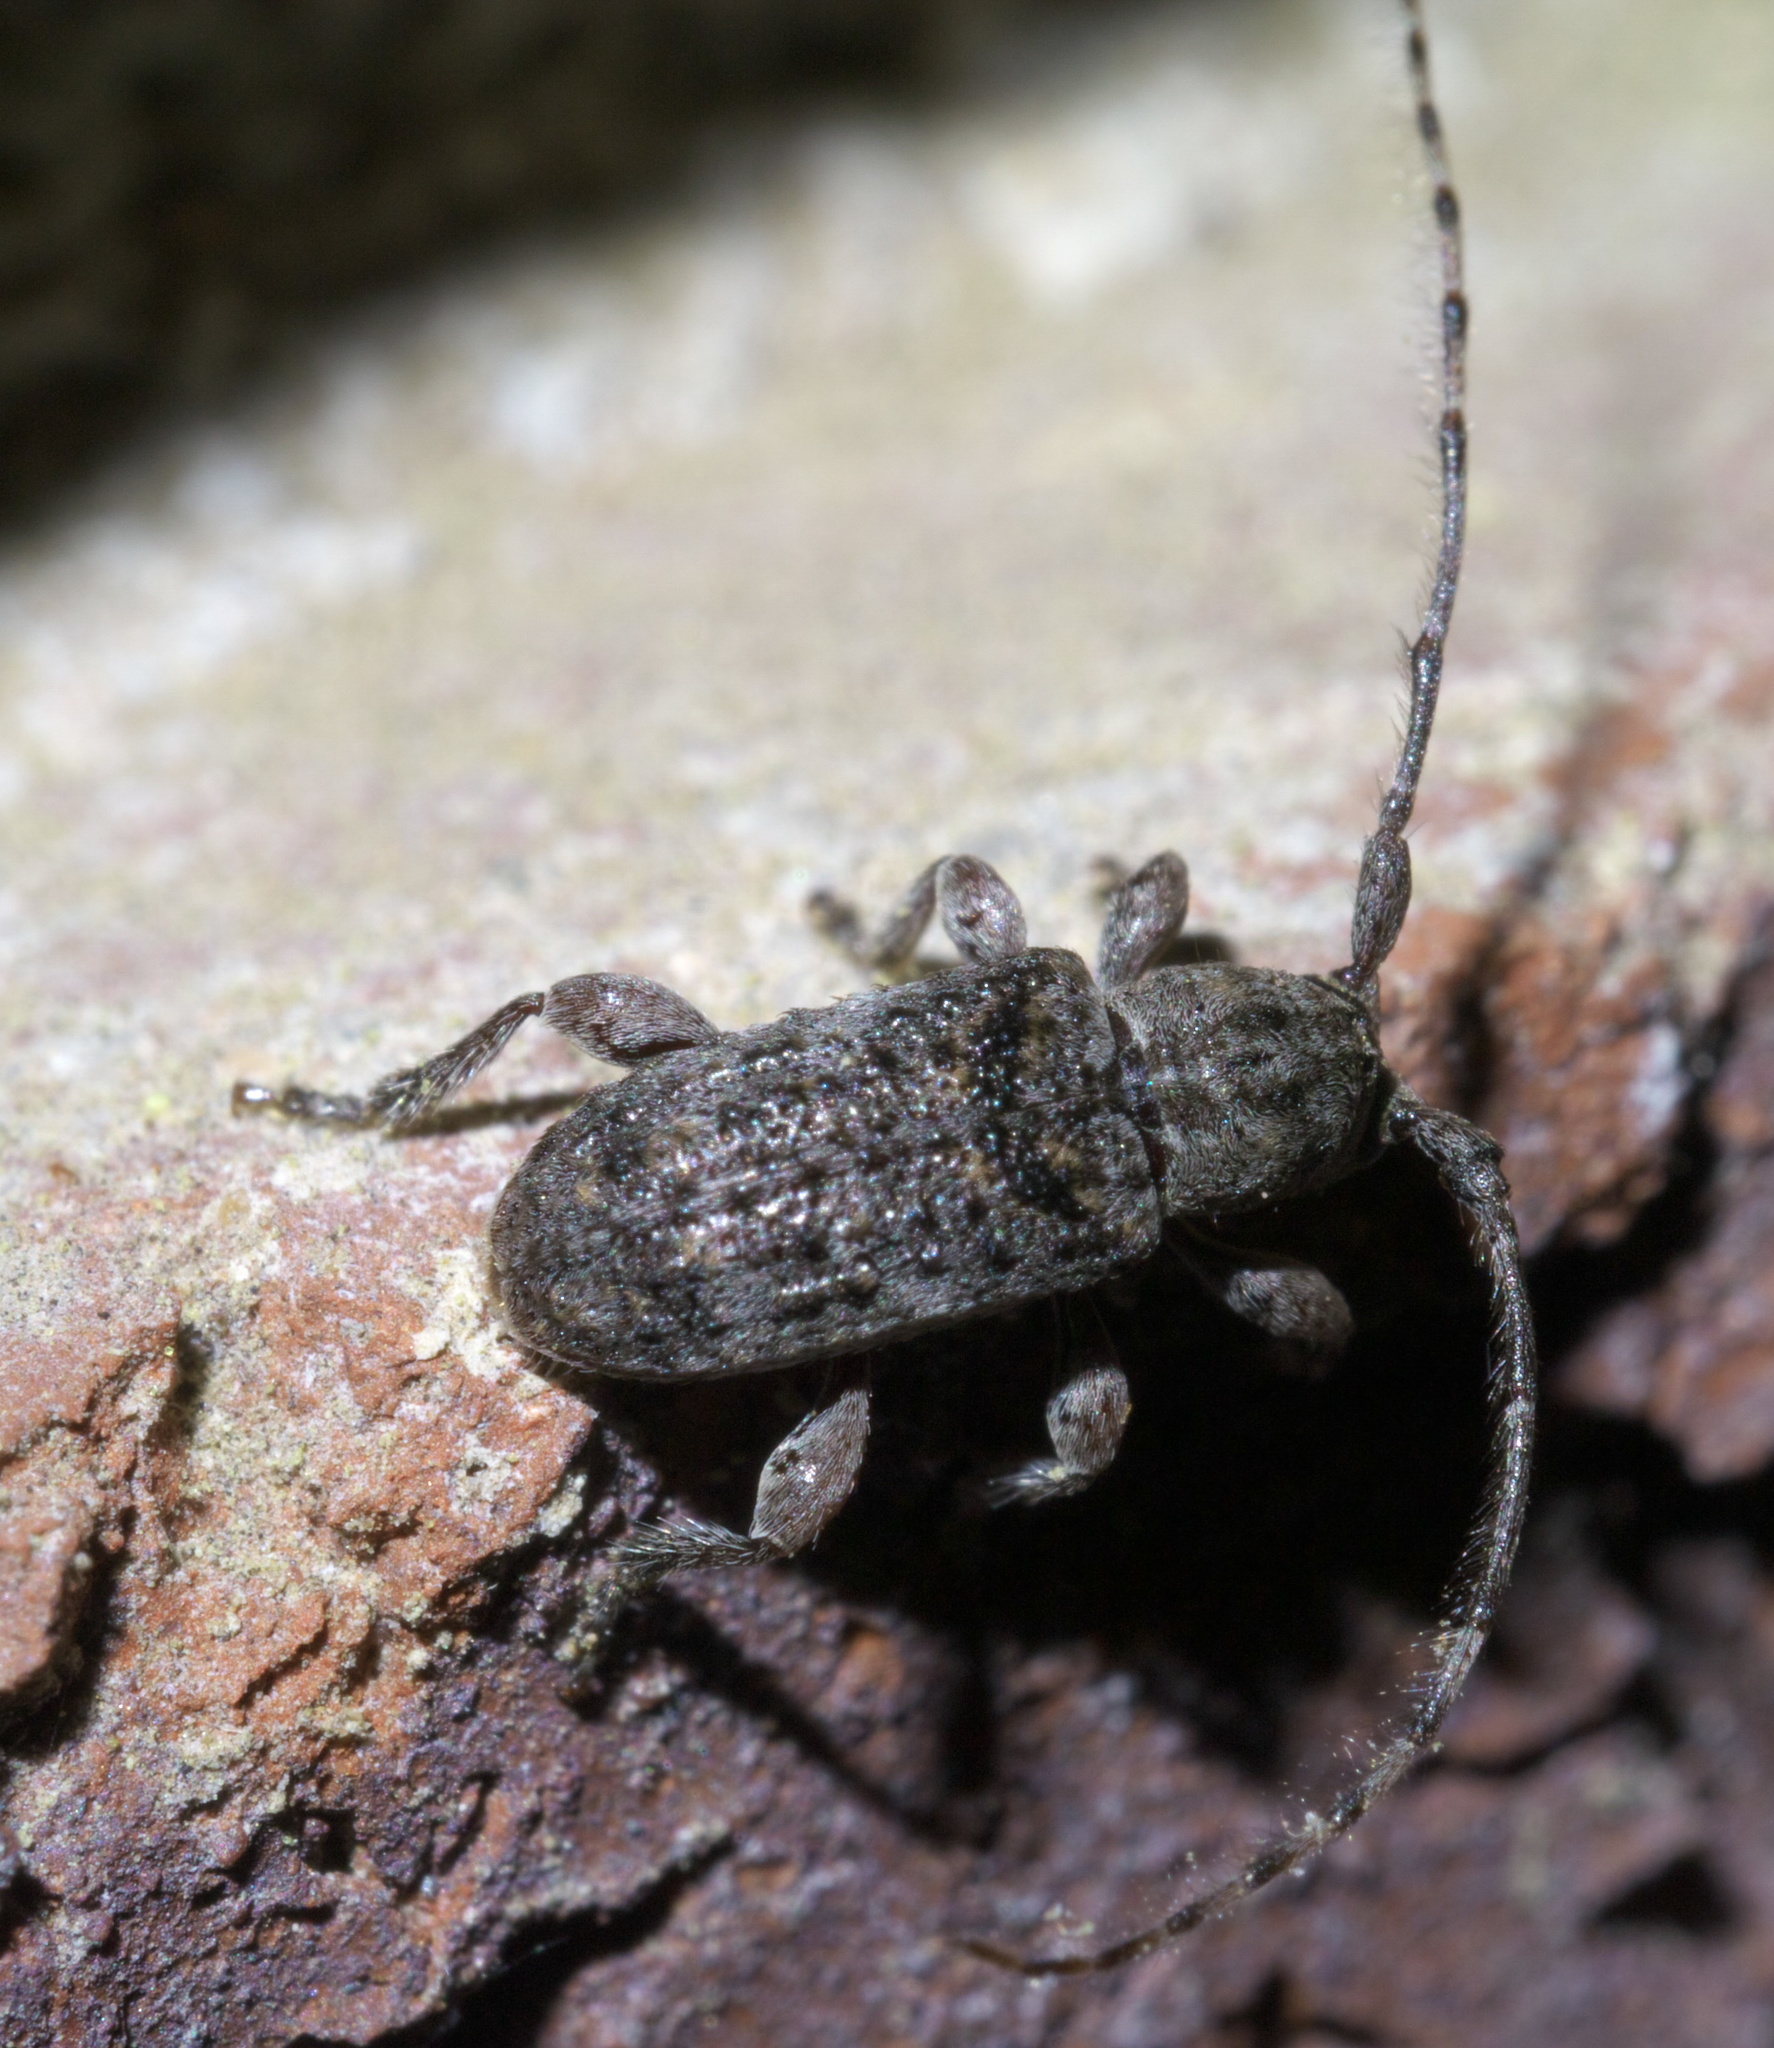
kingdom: Animalia
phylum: Arthropoda
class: Insecta
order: Coleoptera
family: Cerambycidae
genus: Ecyrus
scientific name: Ecyrus dasycerus
